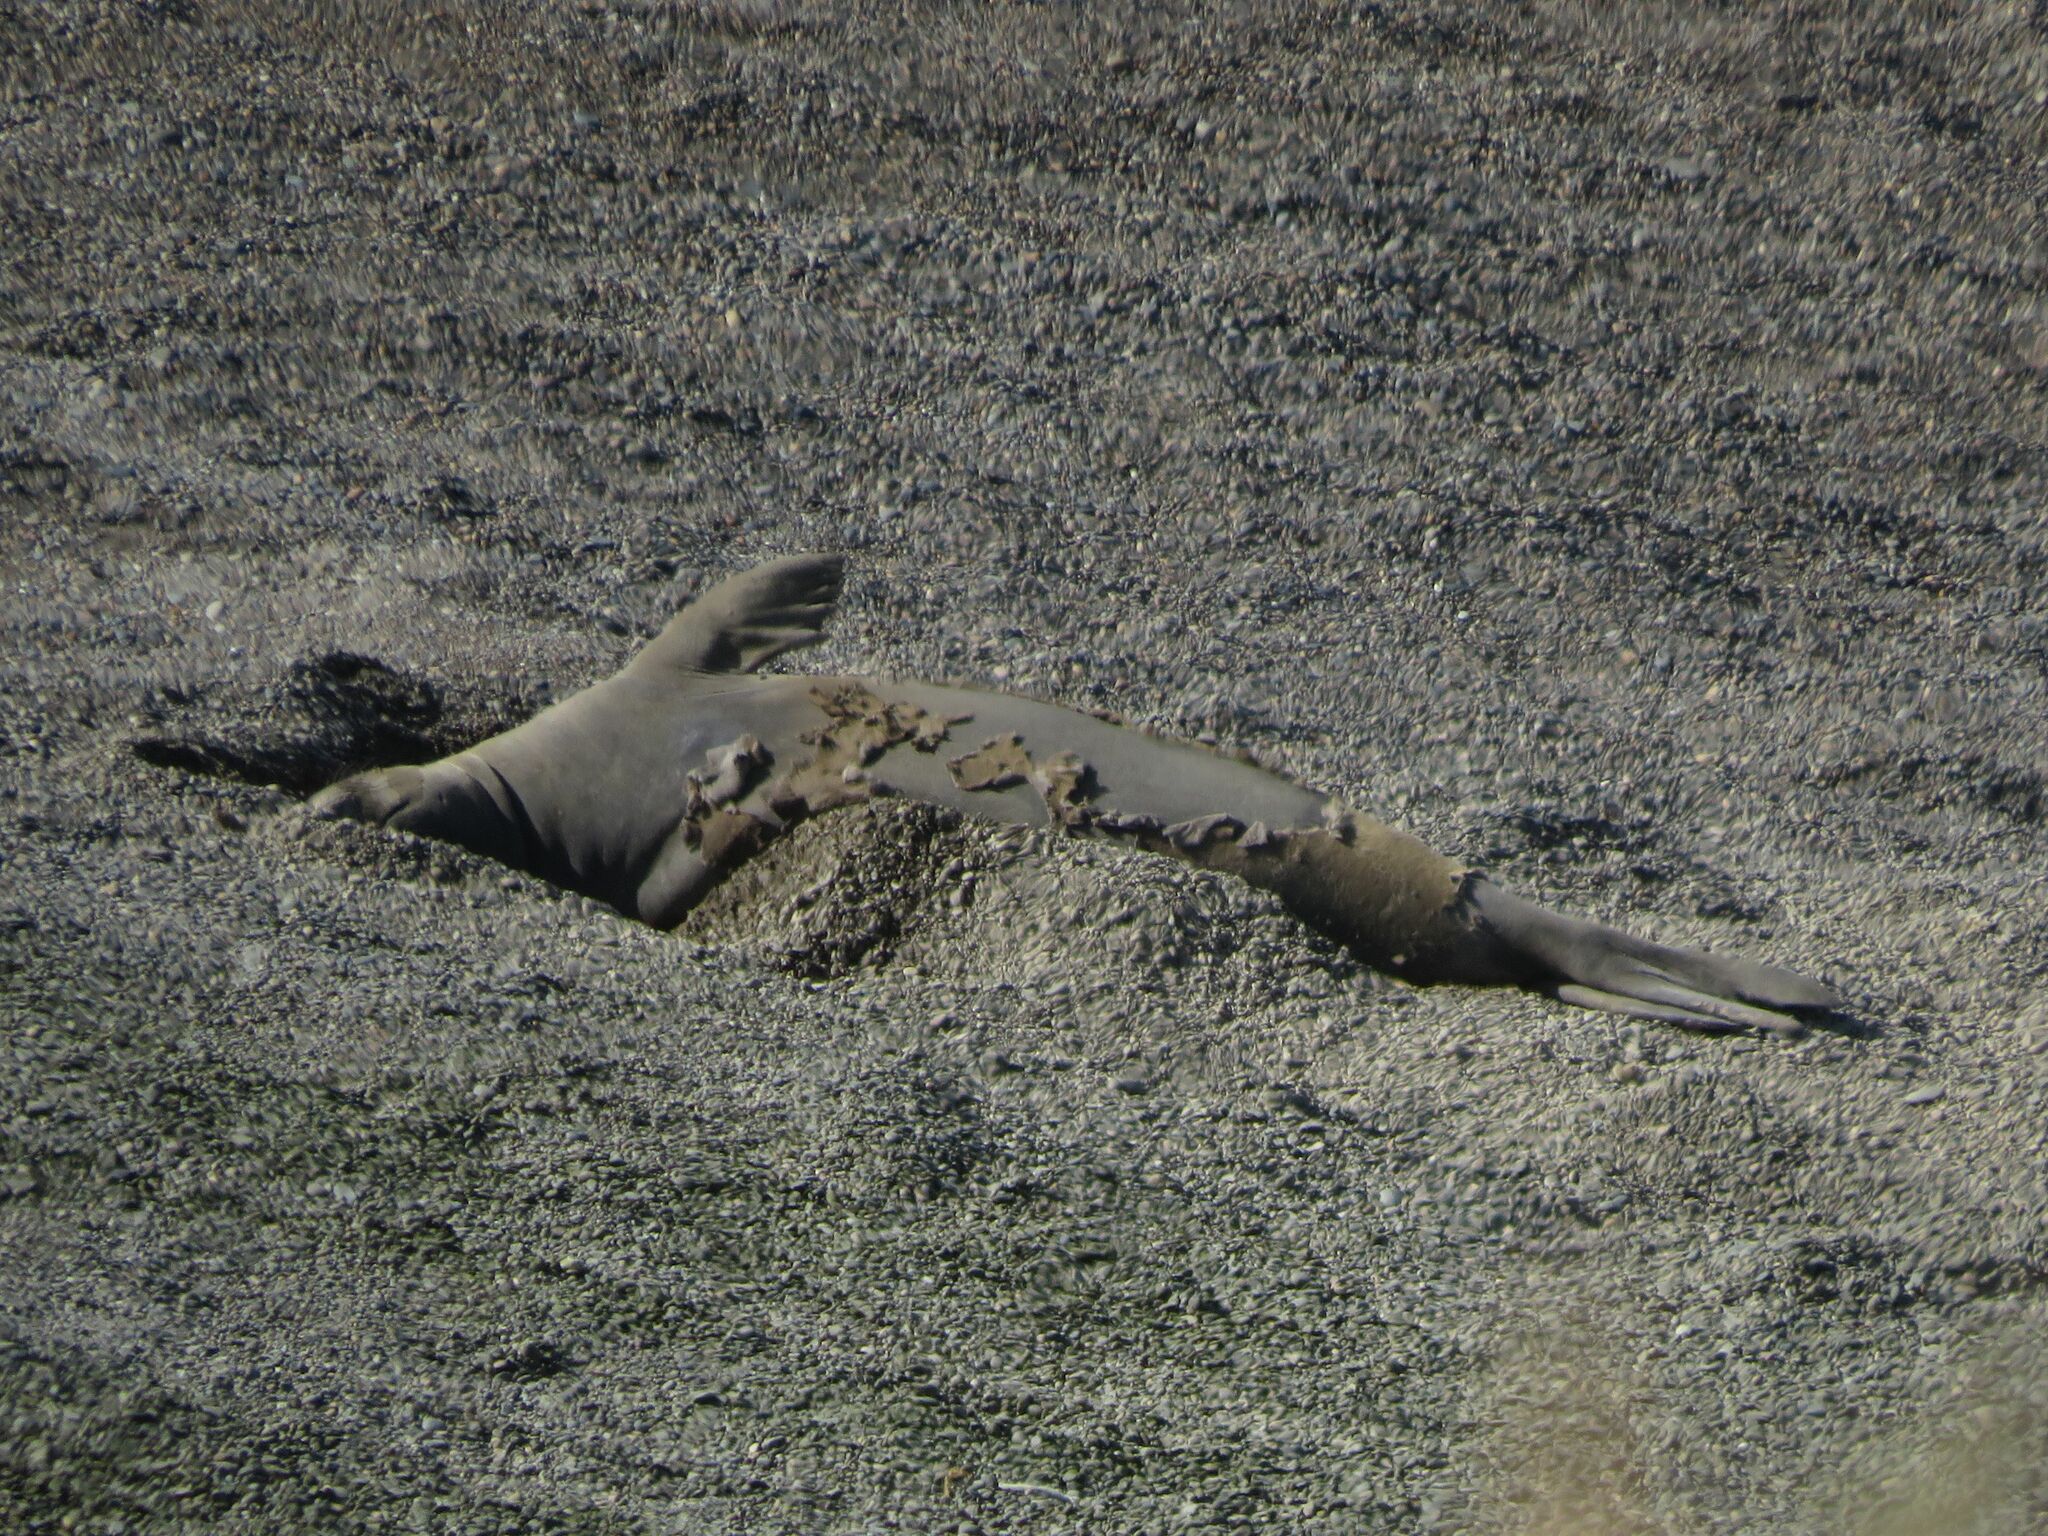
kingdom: Animalia
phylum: Chordata
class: Mammalia
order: Carnivora
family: Phocidae
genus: Mirounga
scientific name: Mirounga leonina
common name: Southern elephant seal
